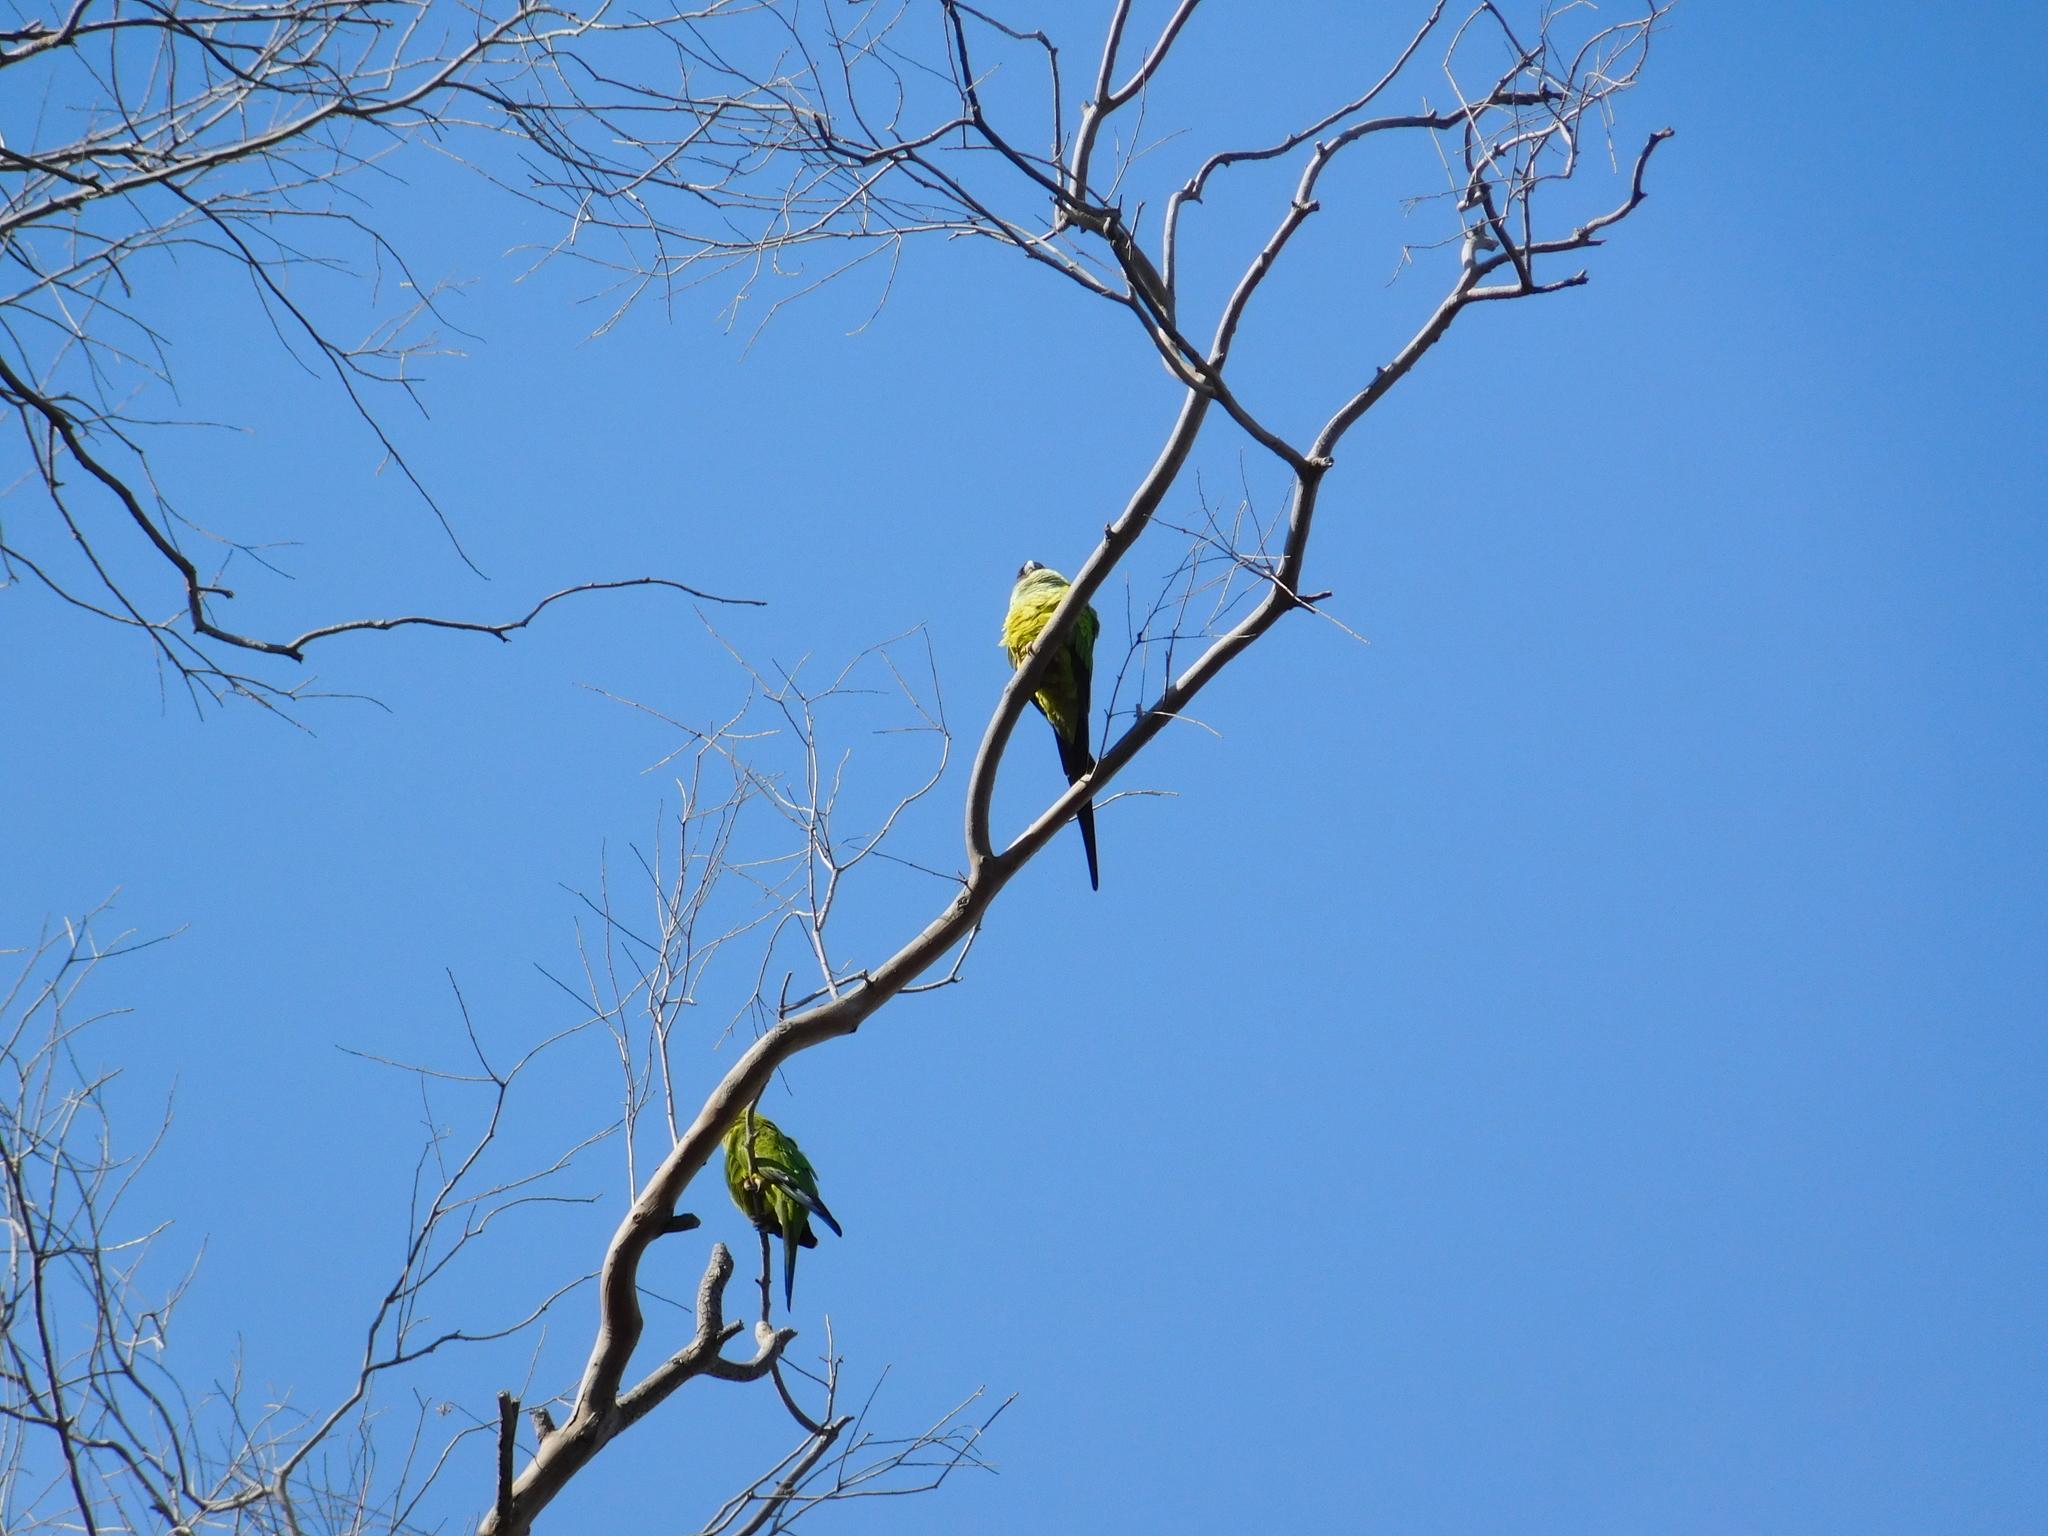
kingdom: Animalia
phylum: Chordata
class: Aves
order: Psittaciformes
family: Psittacidae
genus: Nandayus
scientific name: Nandayus nenday
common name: Nanday parakeet
